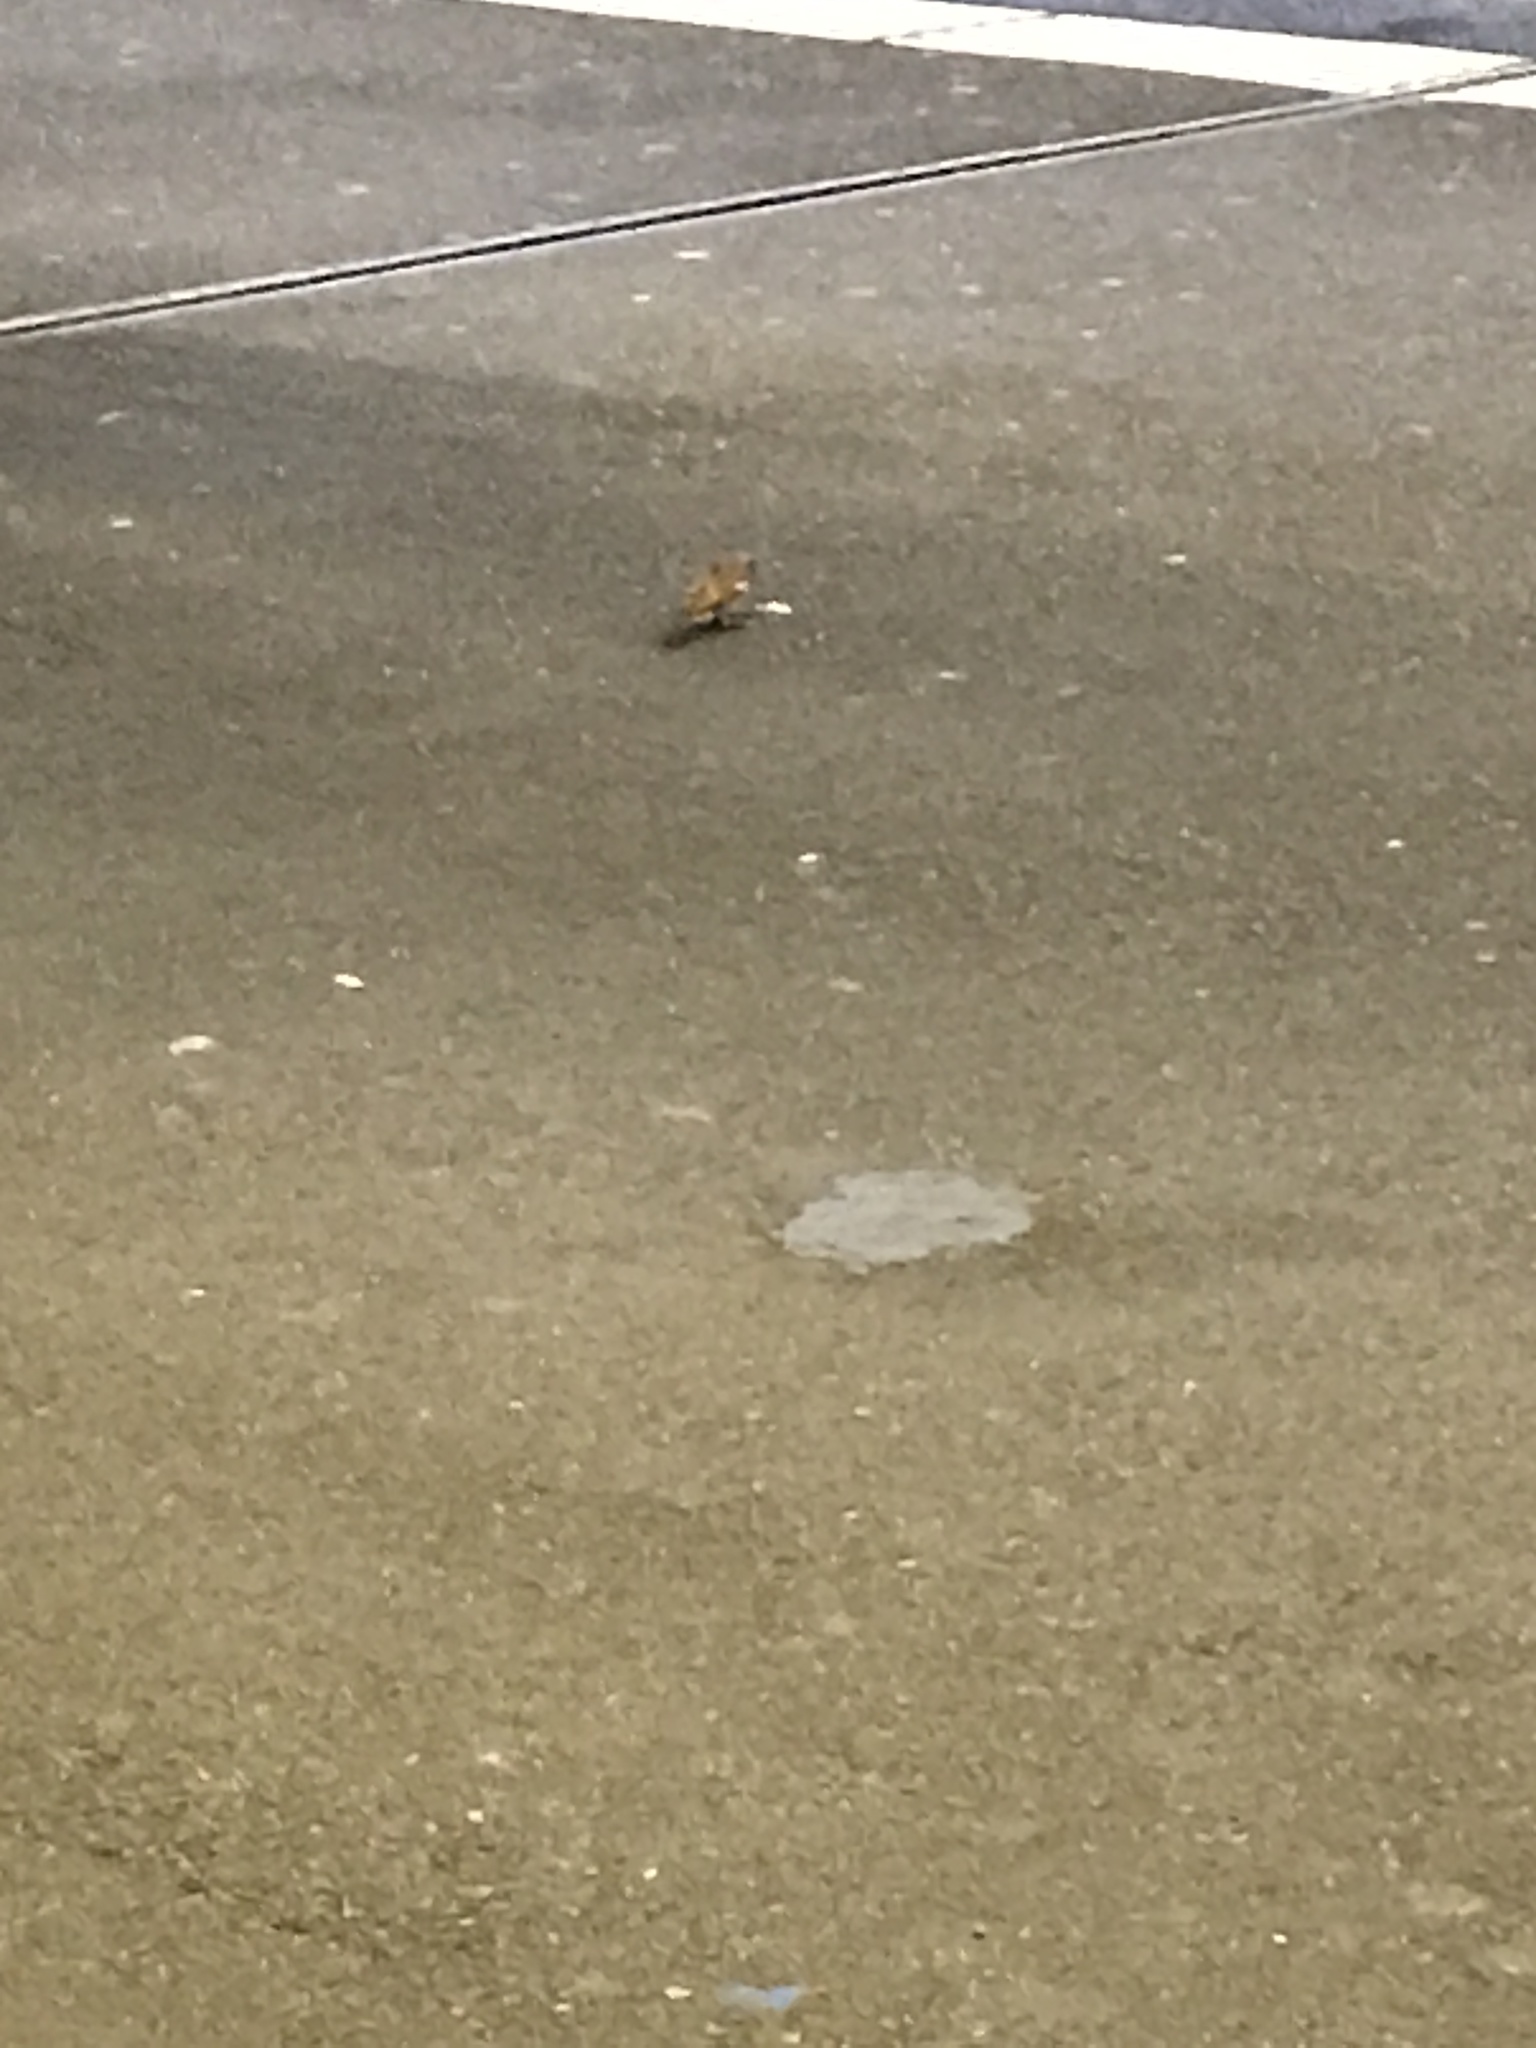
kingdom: Animalia
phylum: Chordata
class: Aves
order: Passeriformes
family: Passeridae
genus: Passer
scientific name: Passer domesticus
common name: House sparrow
